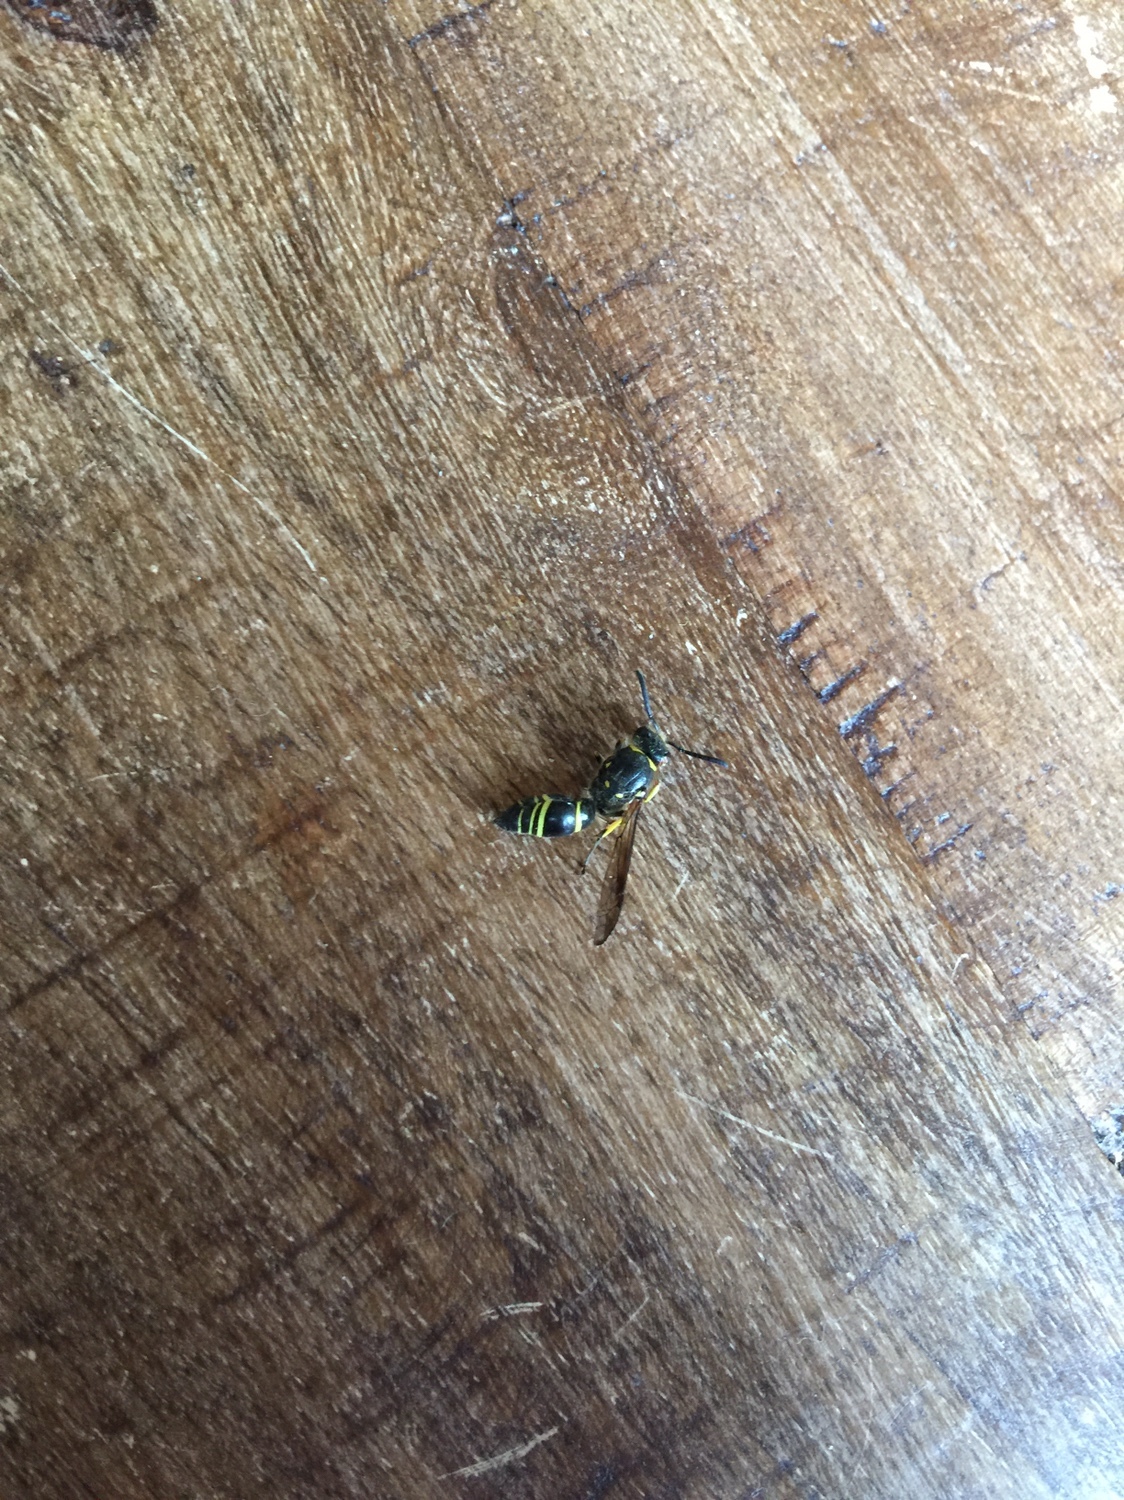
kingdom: Animalia
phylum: Arthropoda
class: Insecta
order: Hymenoptera
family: Vespidae
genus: Ancistrocerus
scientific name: Ancistrocerus
